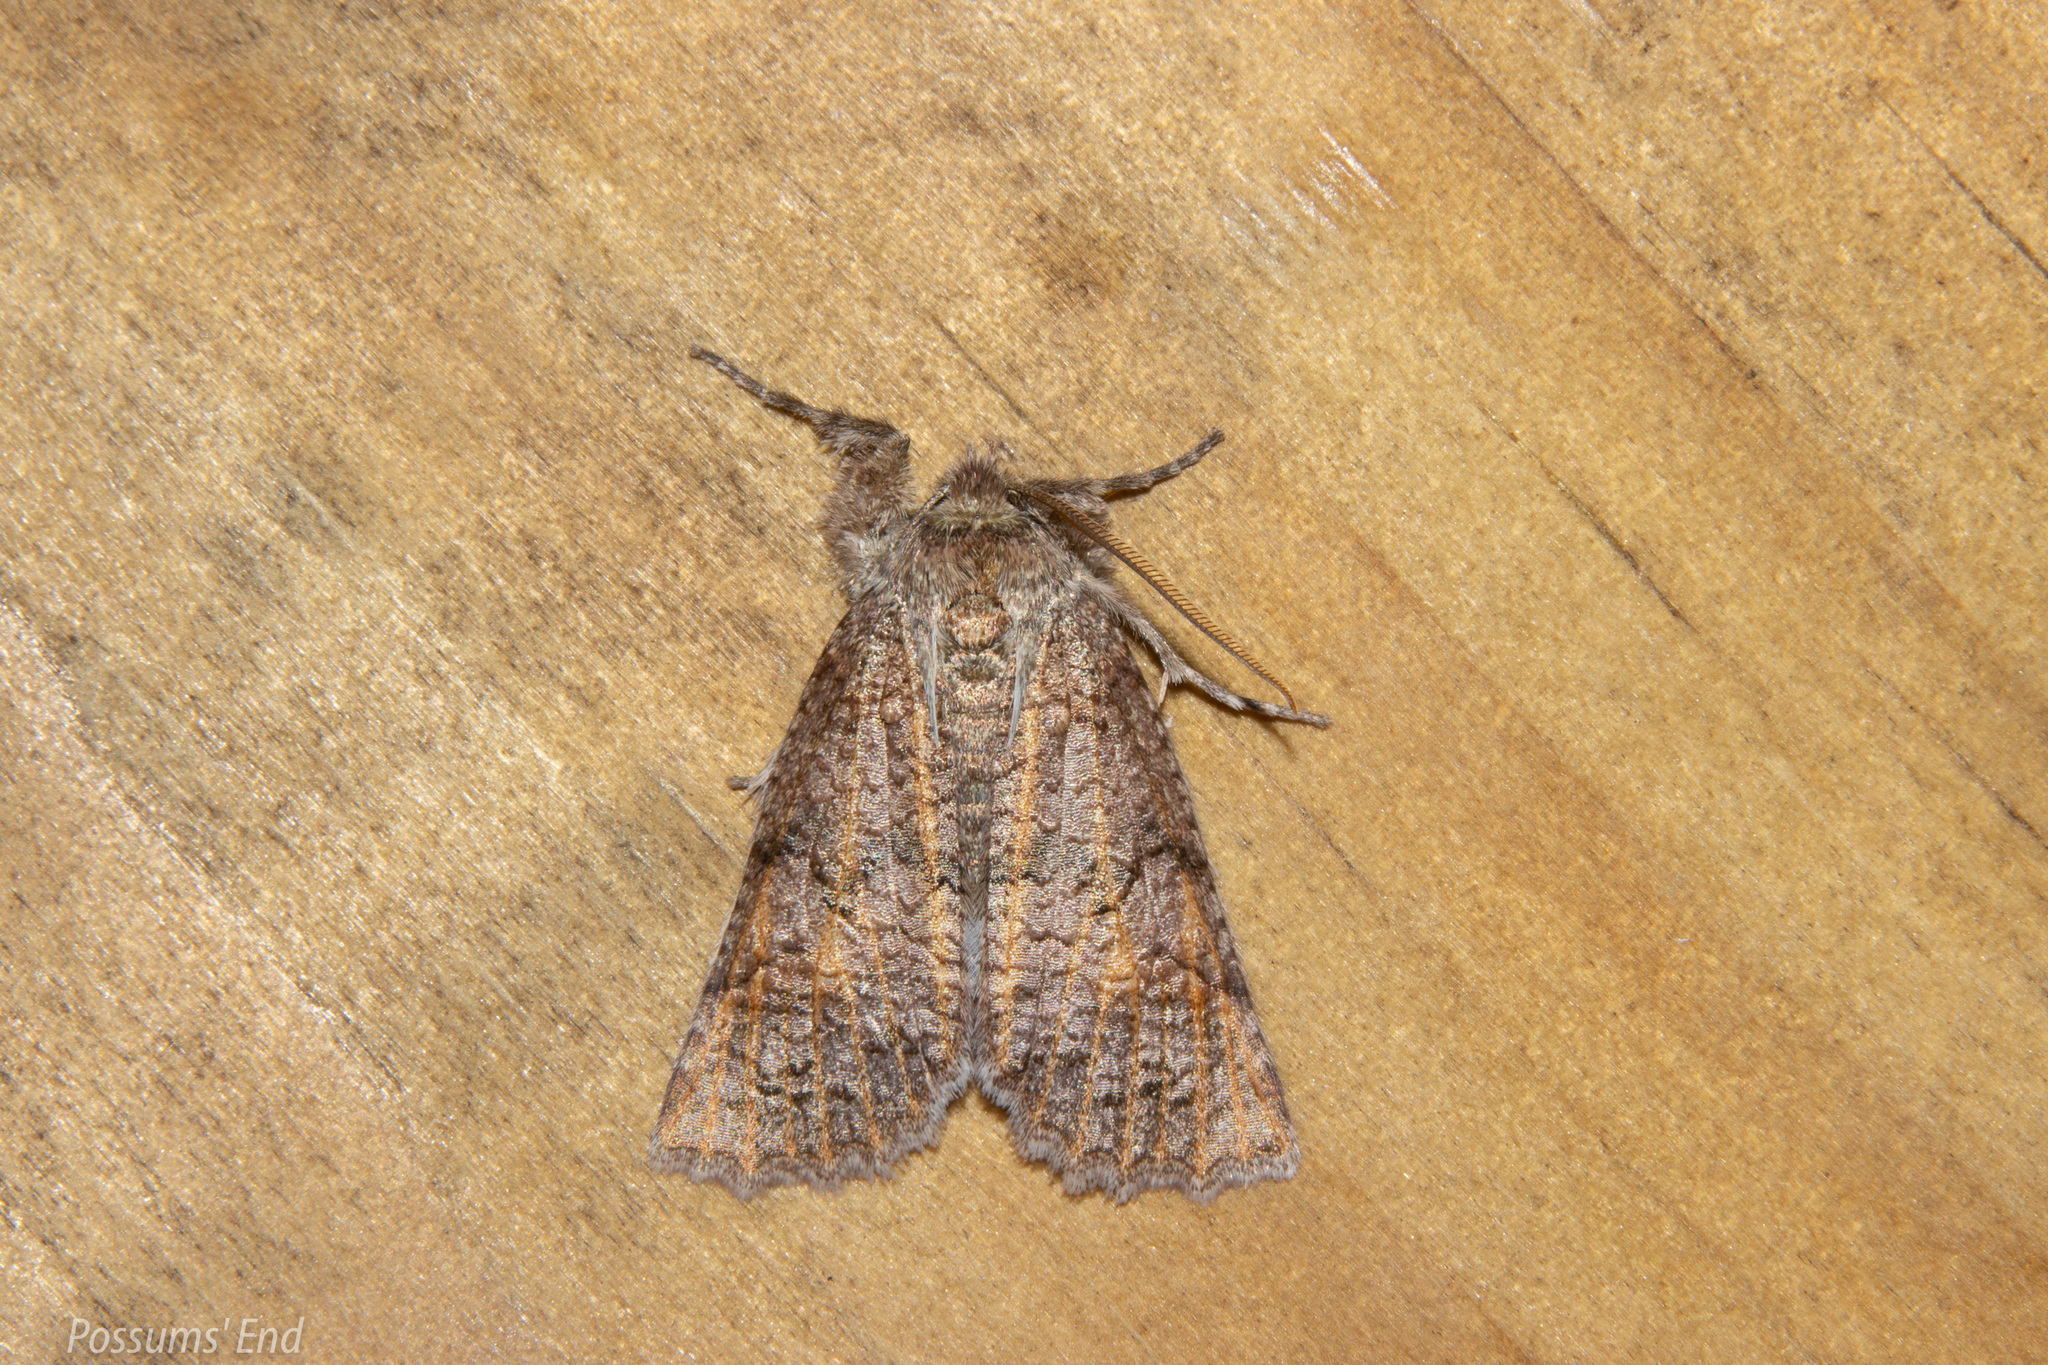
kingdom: Animalia
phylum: Arthropoda
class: Insecta
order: Lepidoptera
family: Geometridae
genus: Declana
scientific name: Declana floccosa
